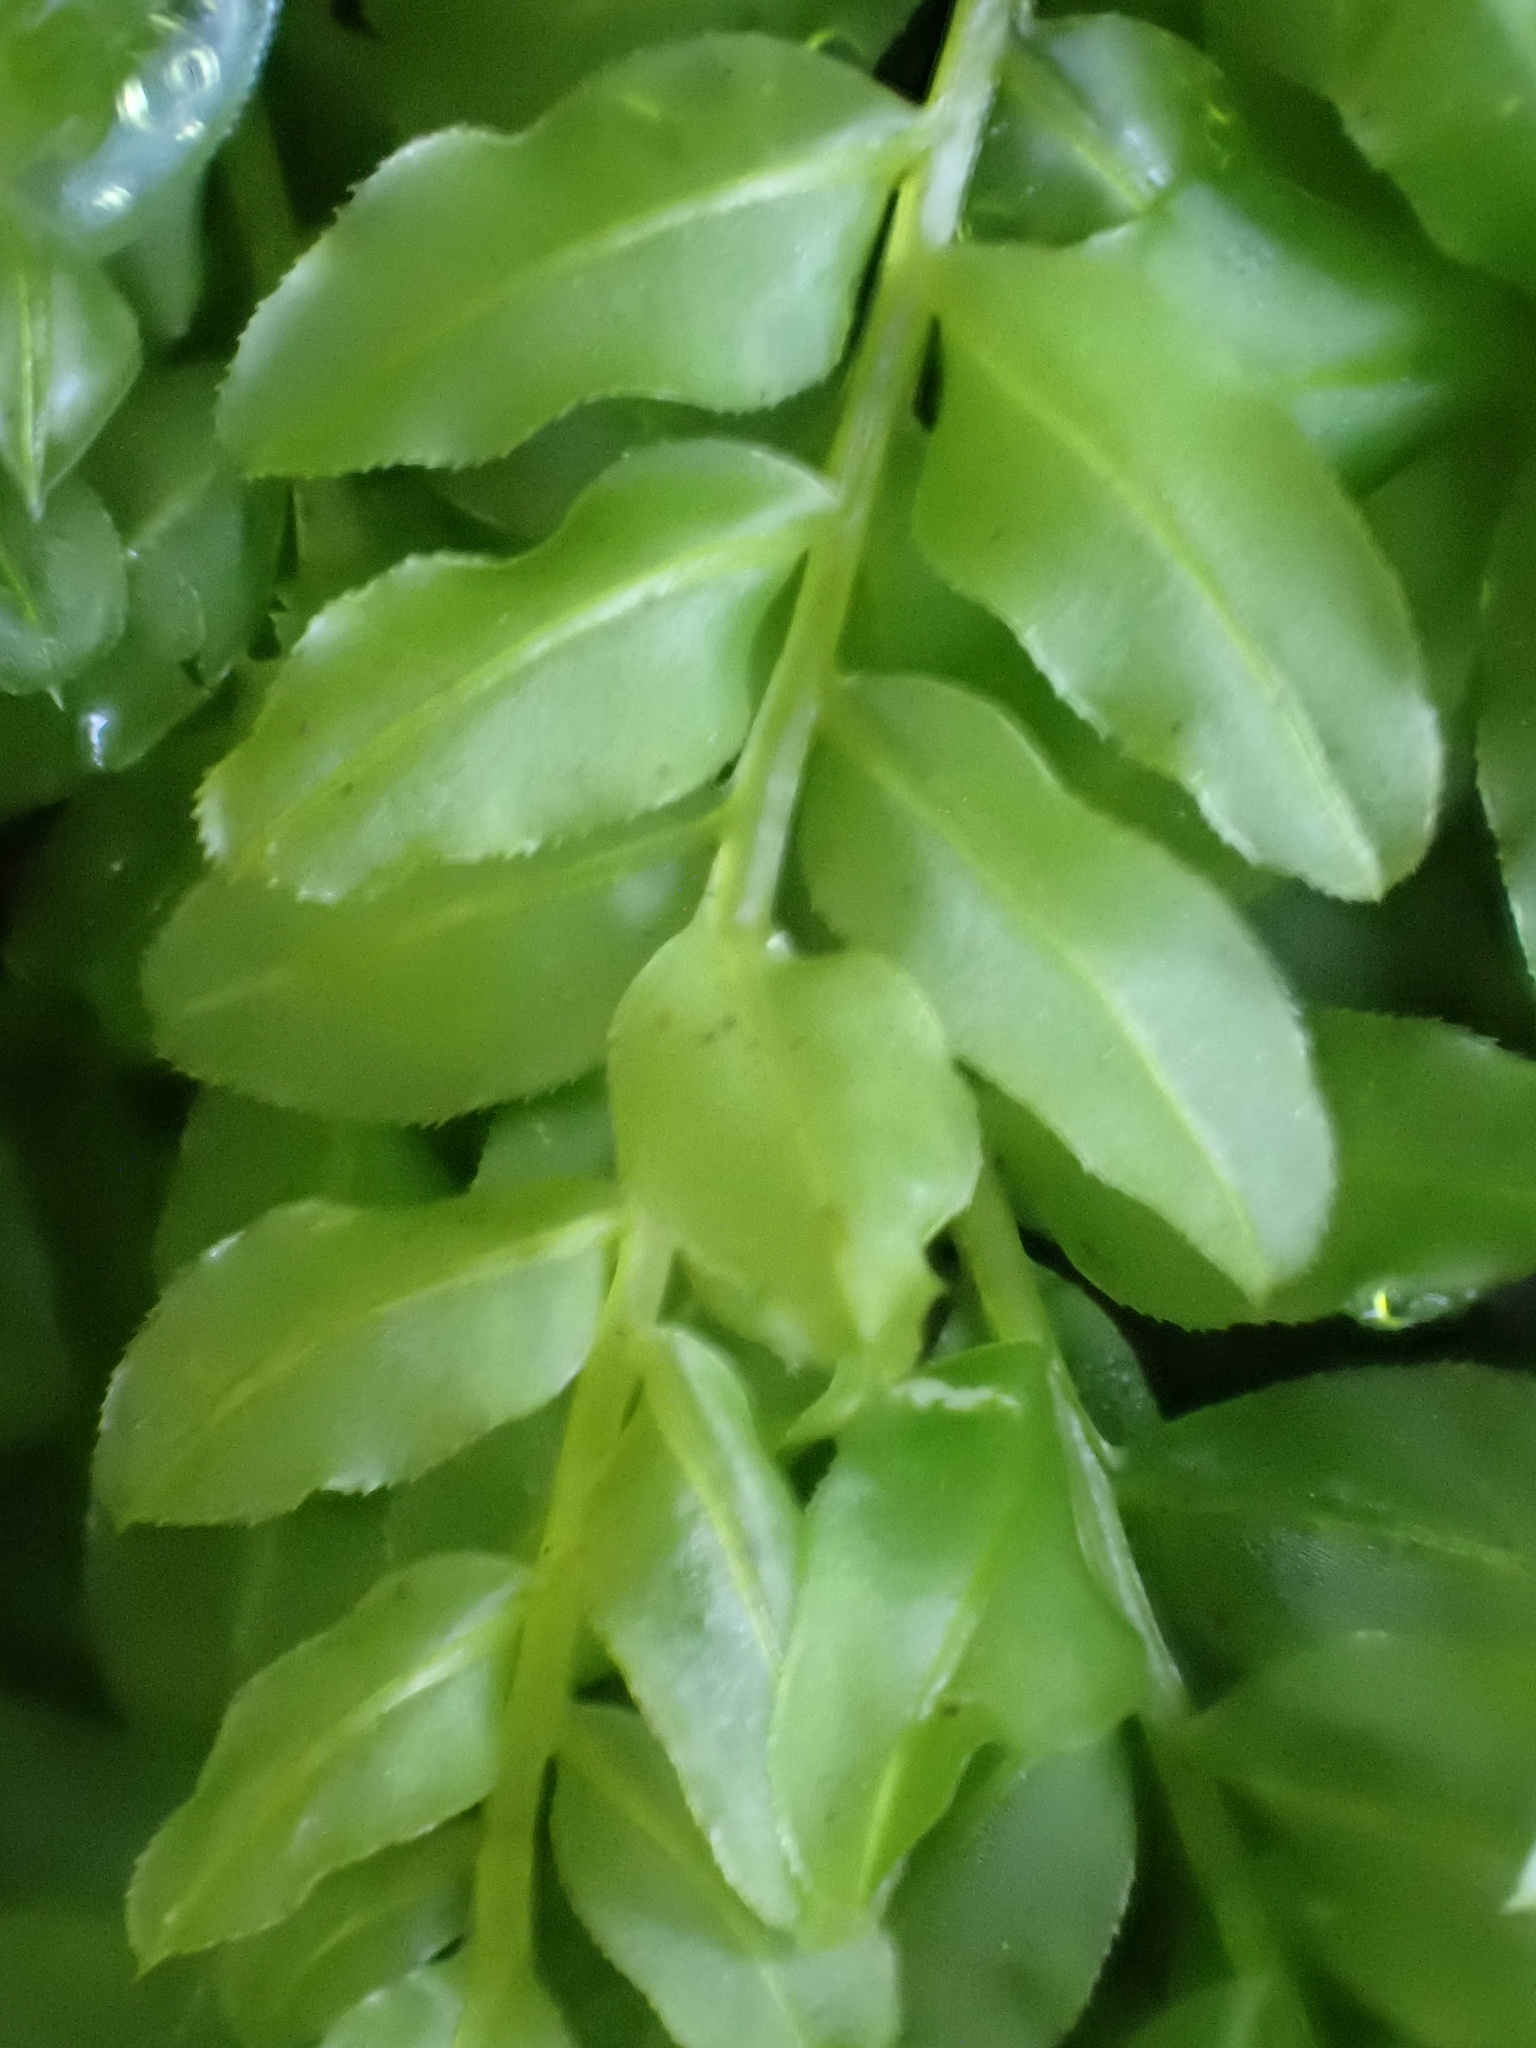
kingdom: Plantae
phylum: Bryophyta
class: Bryopsida
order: Bryales
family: Mniaceae
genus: Plagiomnium
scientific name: Plagiomnium undulatum
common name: Hart's-tongue thyme-moss
